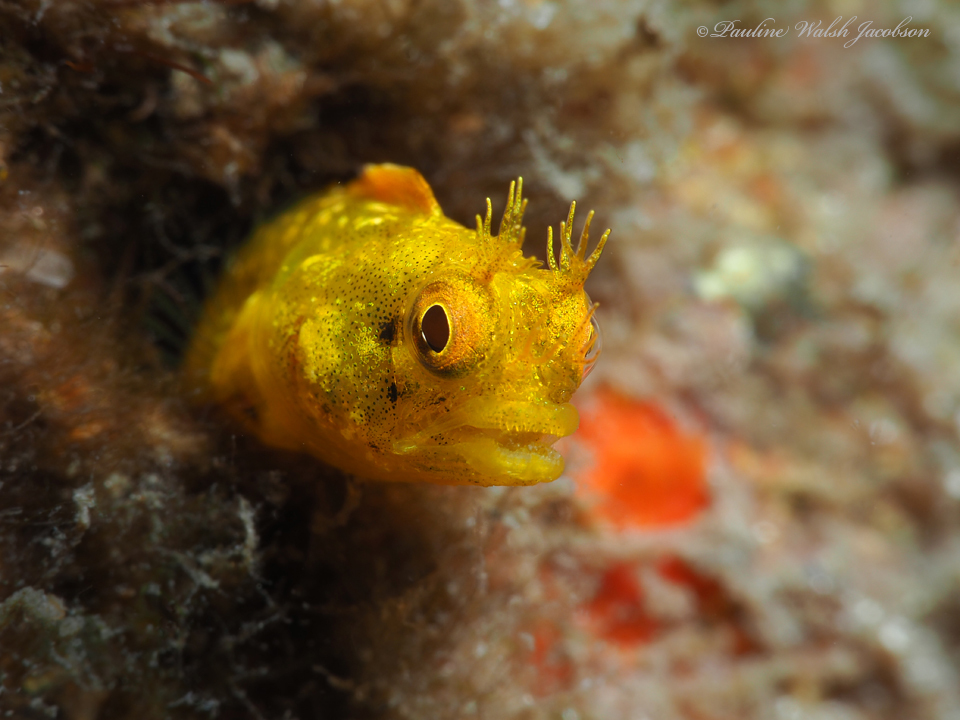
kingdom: Animalia
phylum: Chordata
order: Perciformes
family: Chaenopsidae
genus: Acanthemblemaria
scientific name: Acanthemblemaria aspera
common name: Roughhead blenny
